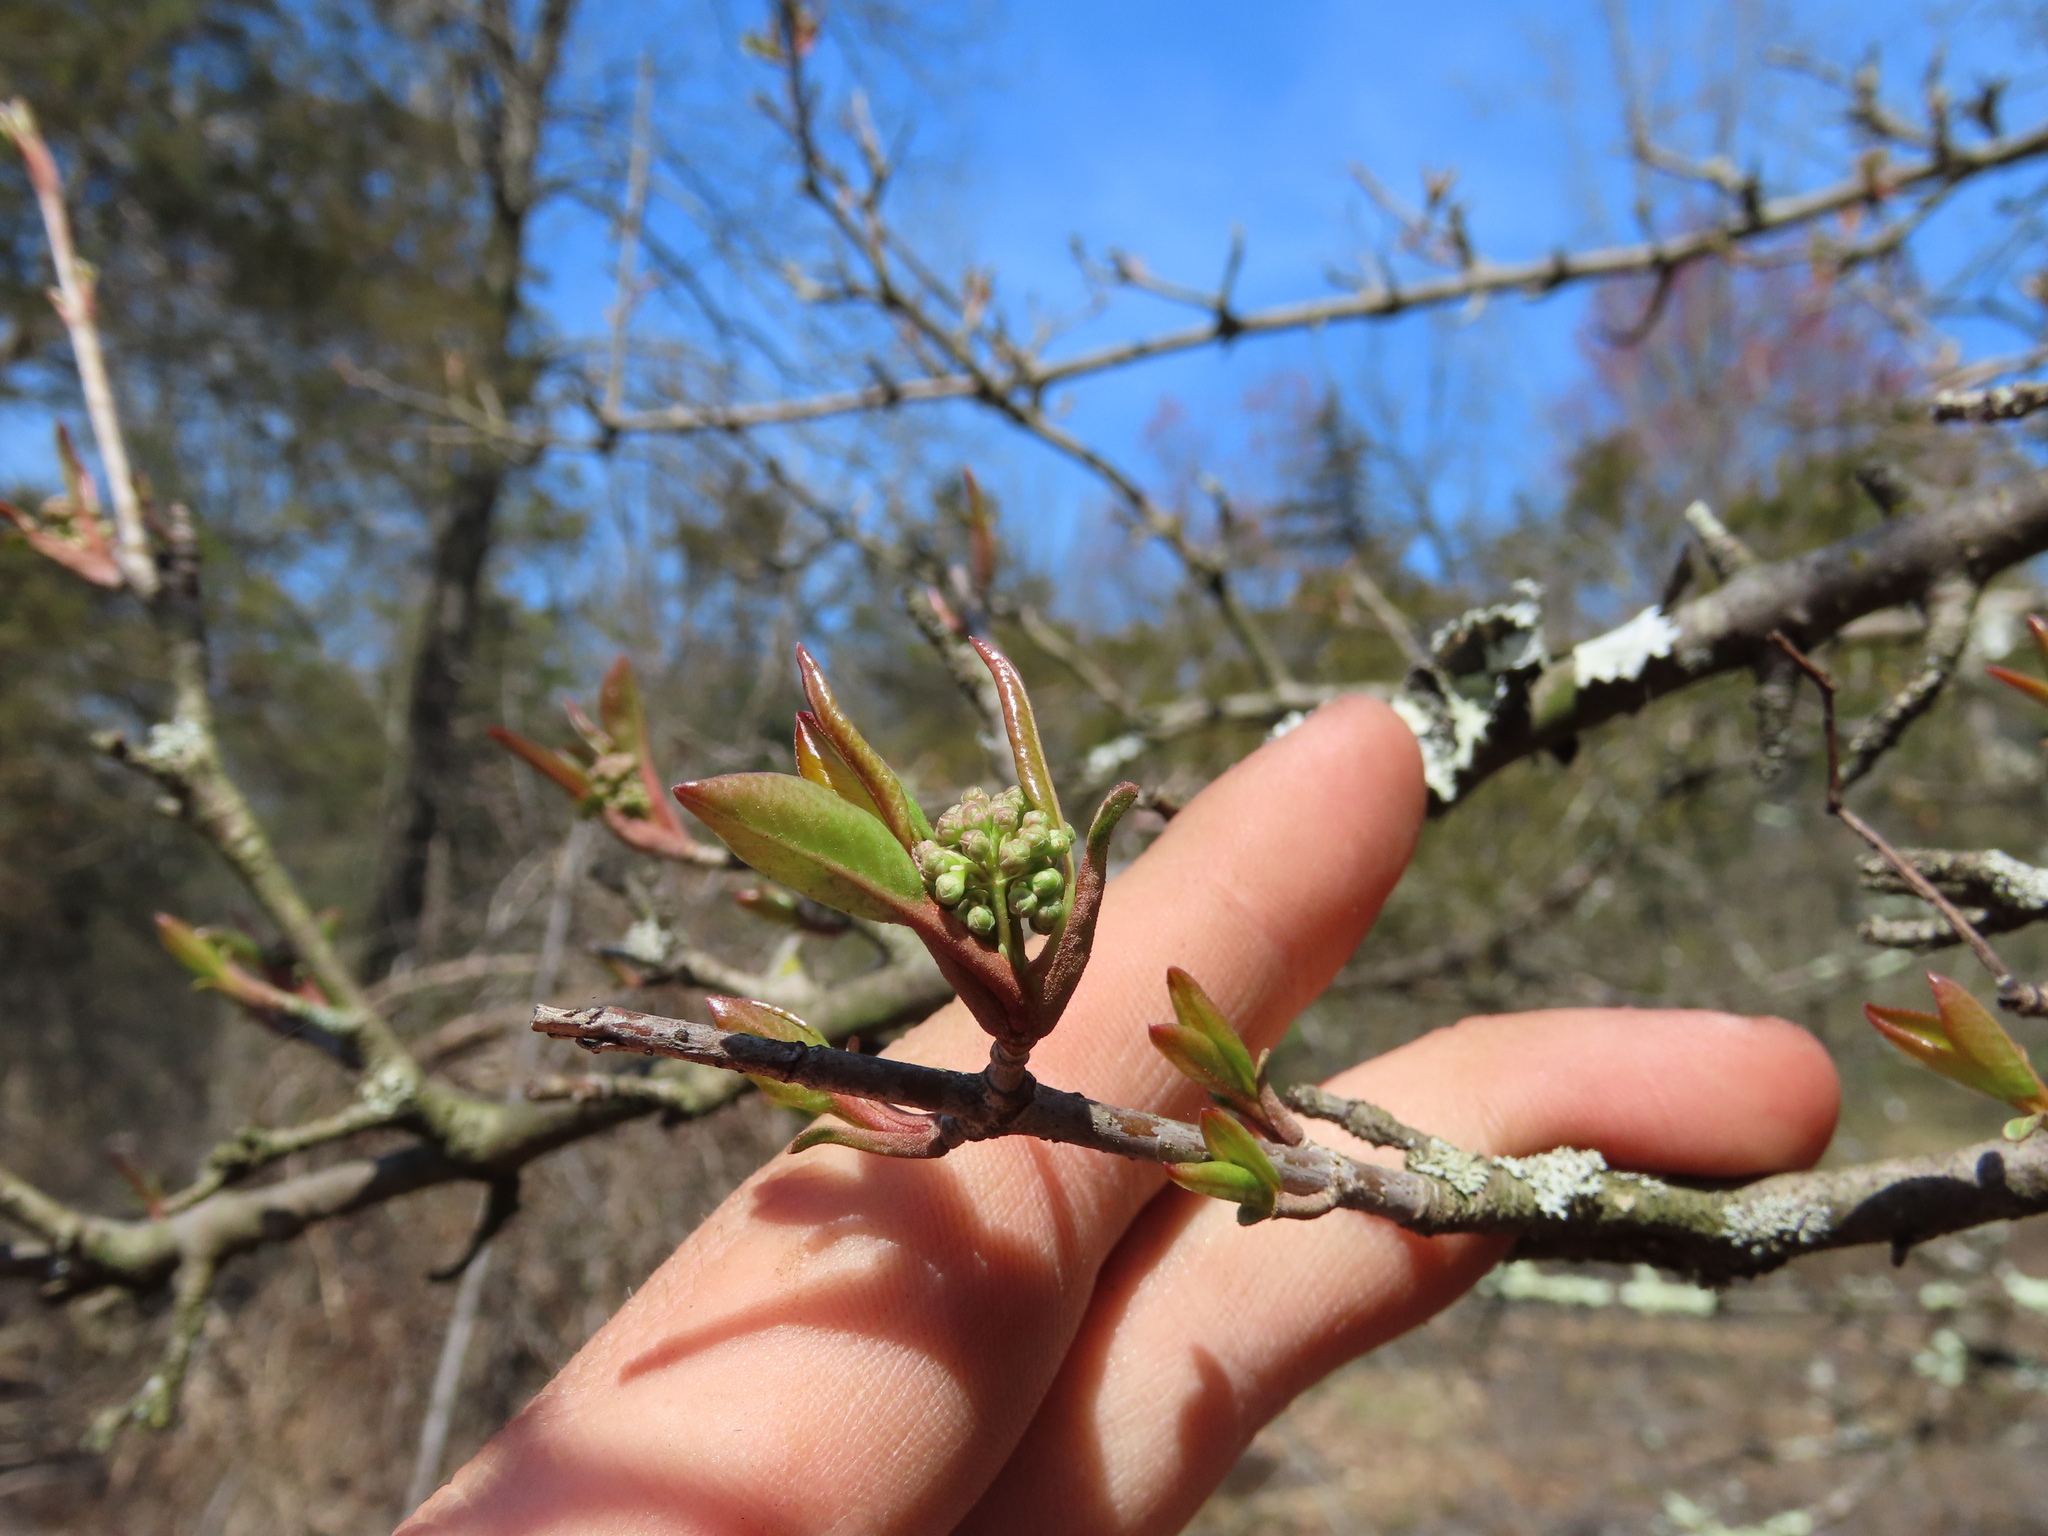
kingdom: Plantae
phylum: Tracheophyta
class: Magnoliopsida
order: Dipsacales
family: Viburnaceae
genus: Viburnum
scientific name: Viburnum prunifolium
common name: Black haw
